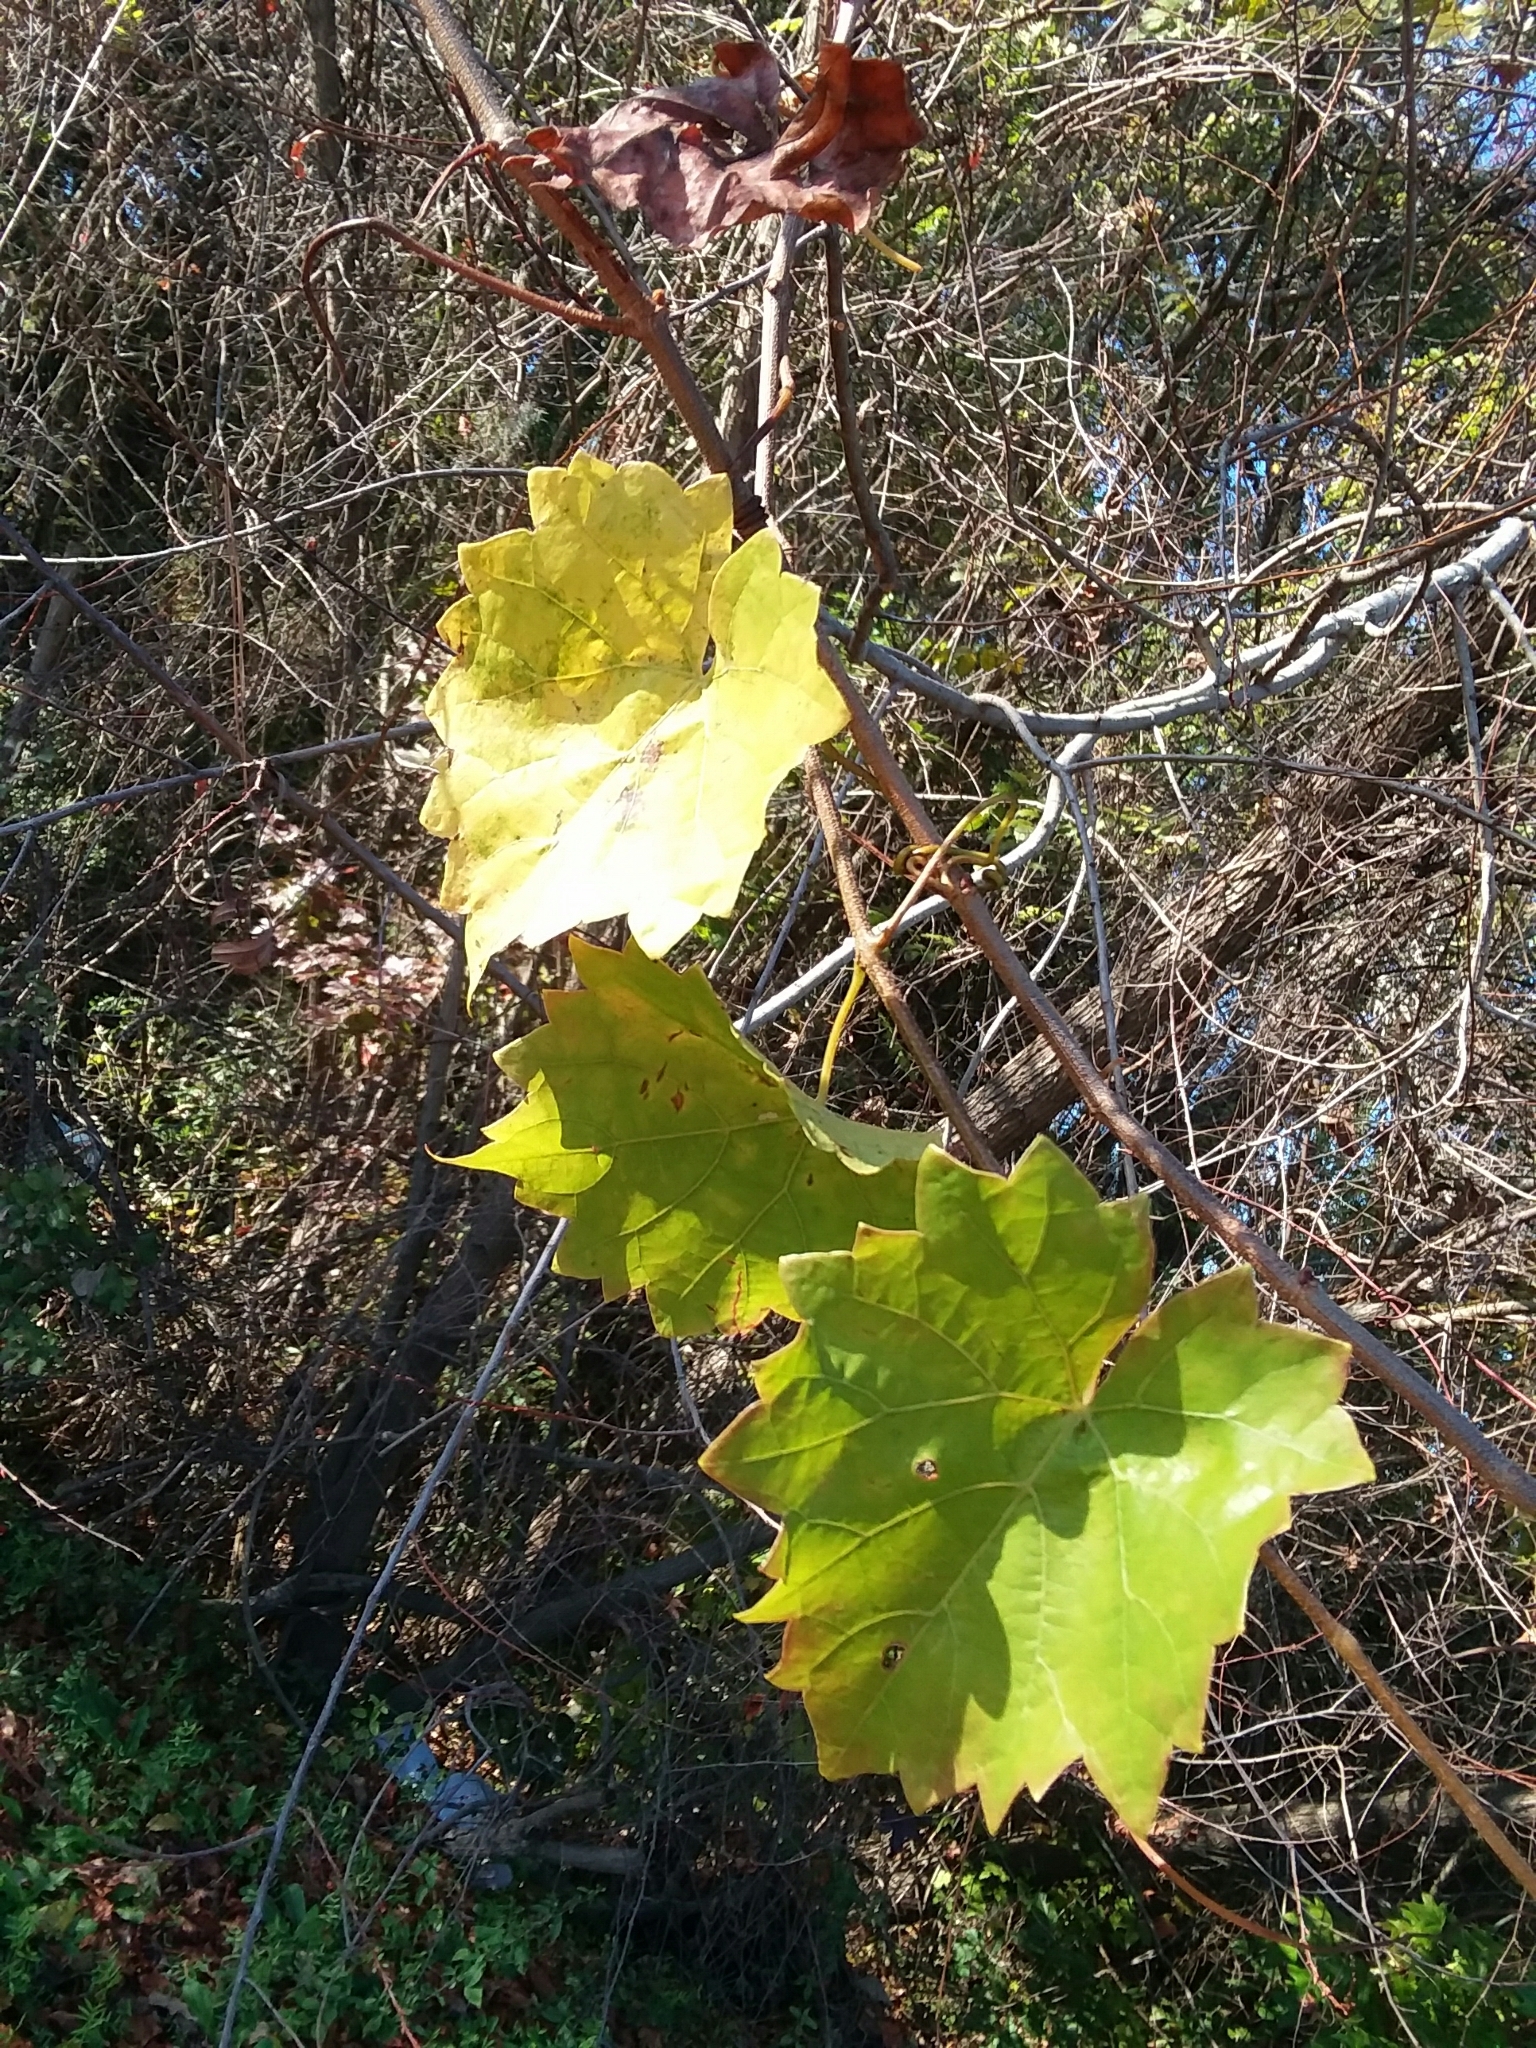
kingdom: Plantae
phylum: Tracheophyta
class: Magnoliopsida
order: Vitales
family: Vitaceae
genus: Vitis
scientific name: Vitis rotundifolia
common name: Muscadine grape
